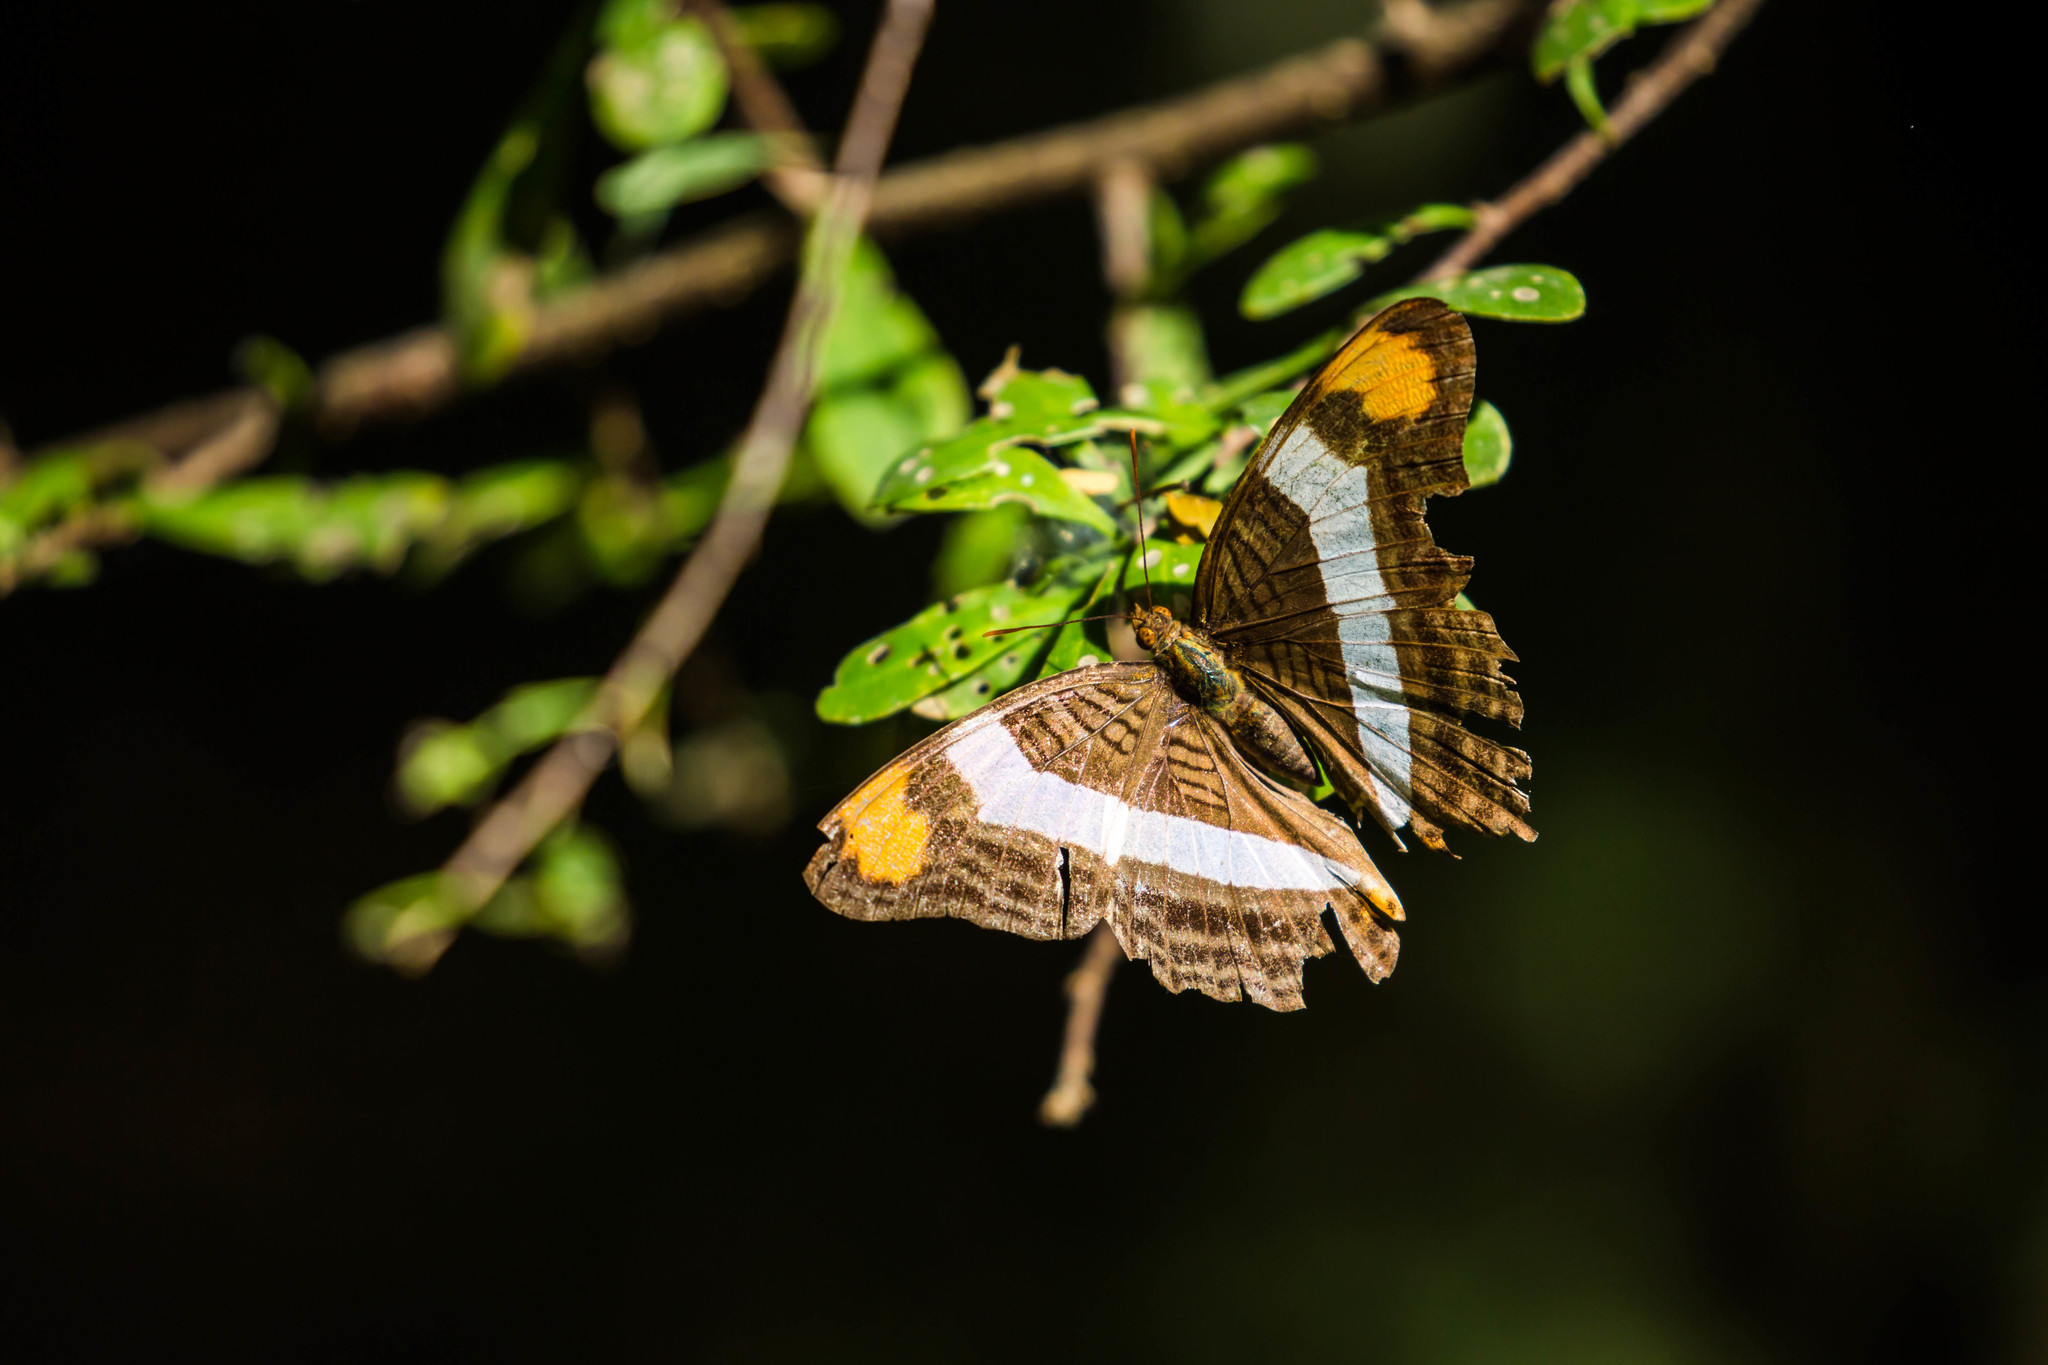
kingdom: Animalia
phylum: Arthropoda
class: Insecta
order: Lepidoptera
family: Nymphalidae
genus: Limenitis
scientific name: Limenitis fessonia
